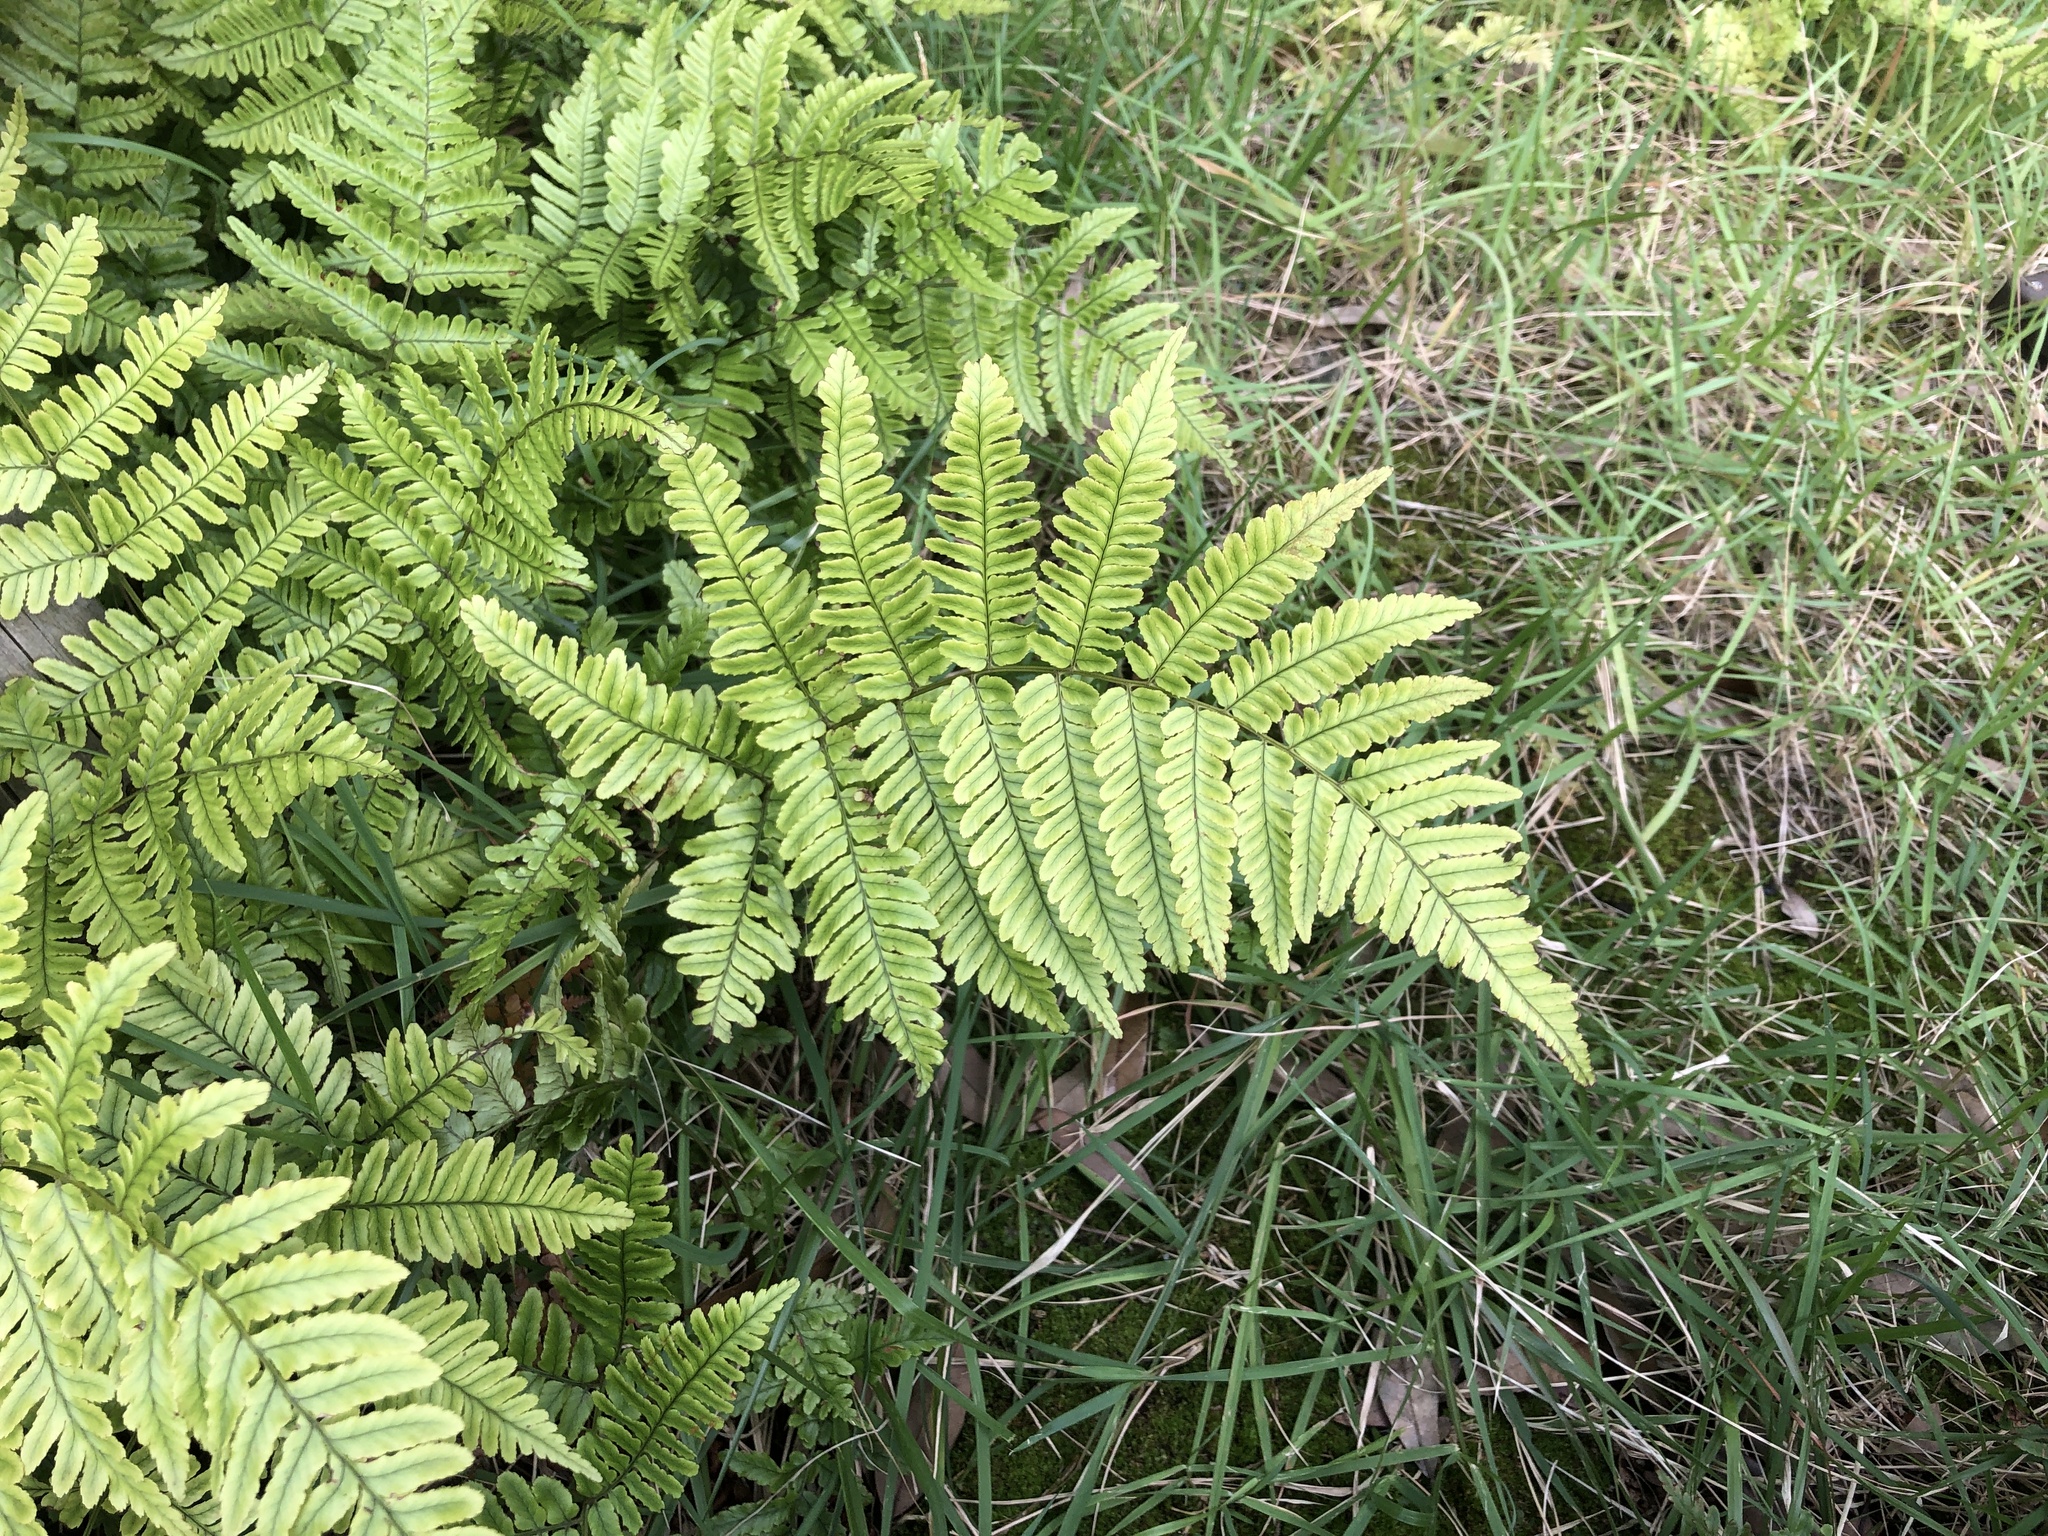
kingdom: Plantae
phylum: Tracheophyta
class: Polypodiopsida
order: Polypodiales
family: Dryopteridaceae
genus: Dryopteris
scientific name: Dryopteris erythrosora
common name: Autumn fern
